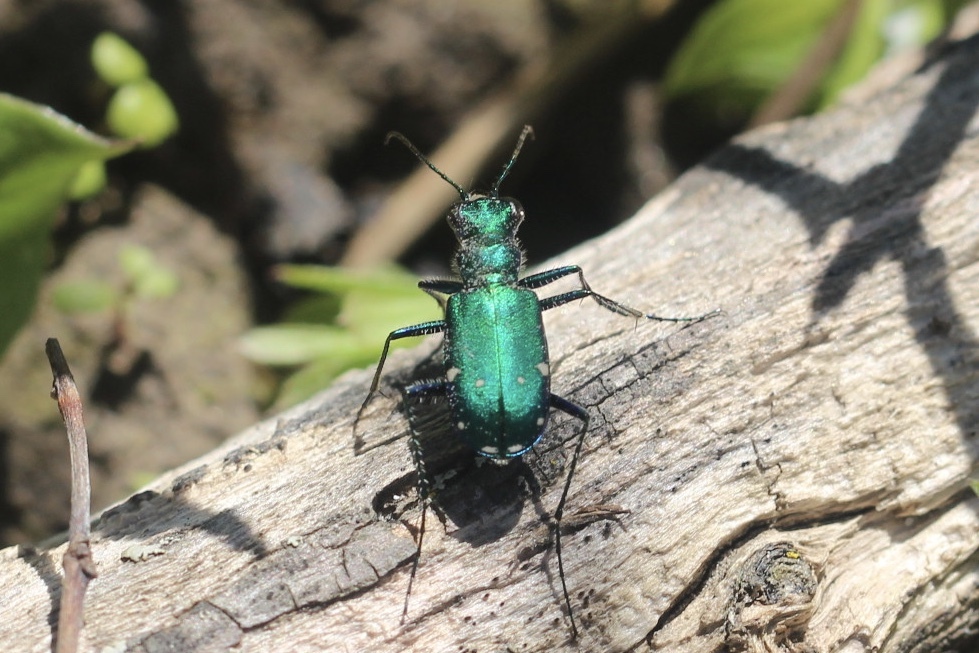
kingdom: Animalia
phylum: Arthropoda
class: Insecta
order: Coleoptera
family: Carabidae
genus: Cicindela
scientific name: Cicindela sexguttata
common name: Six-spotted tiger beetle
